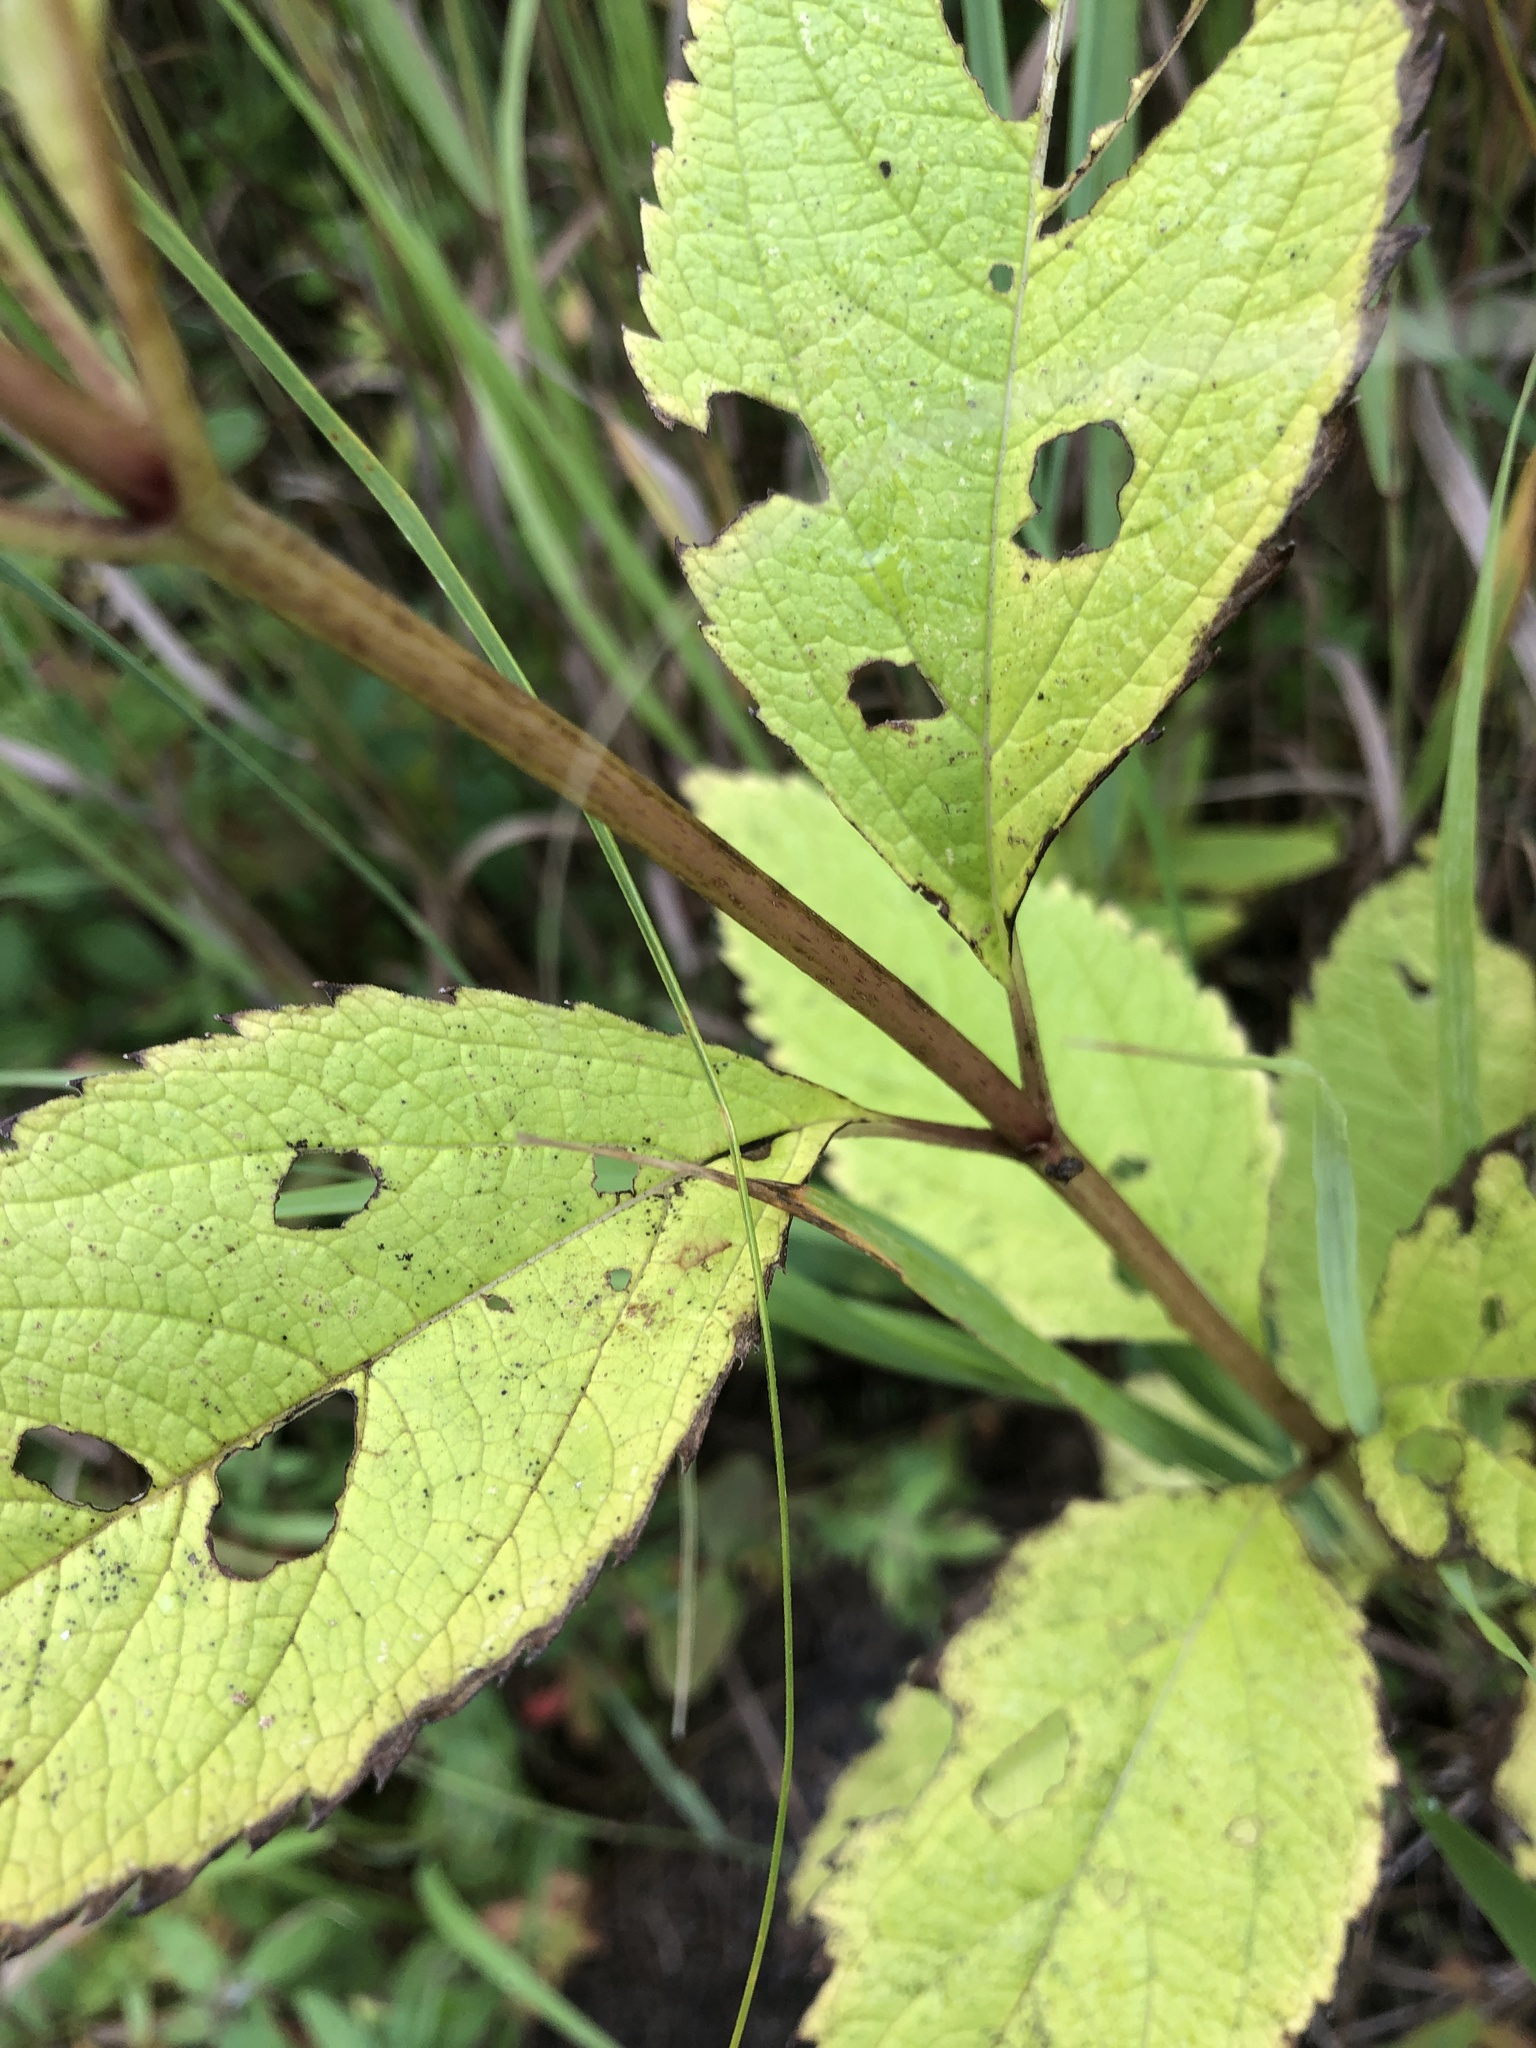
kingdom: Plantae
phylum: Tracheophyta
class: Magnoliopsida
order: Asterales
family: Asteraceae
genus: Eutrochium
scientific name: Eutrochium maculatum
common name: Spotted joe pye weed
